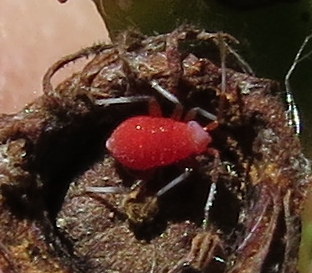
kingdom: Animalia
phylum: Arthropoda
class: Insecta
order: Hemiptera
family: Rhopalidae
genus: Boisea
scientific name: Boisea trivittata
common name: Boxelder bug
